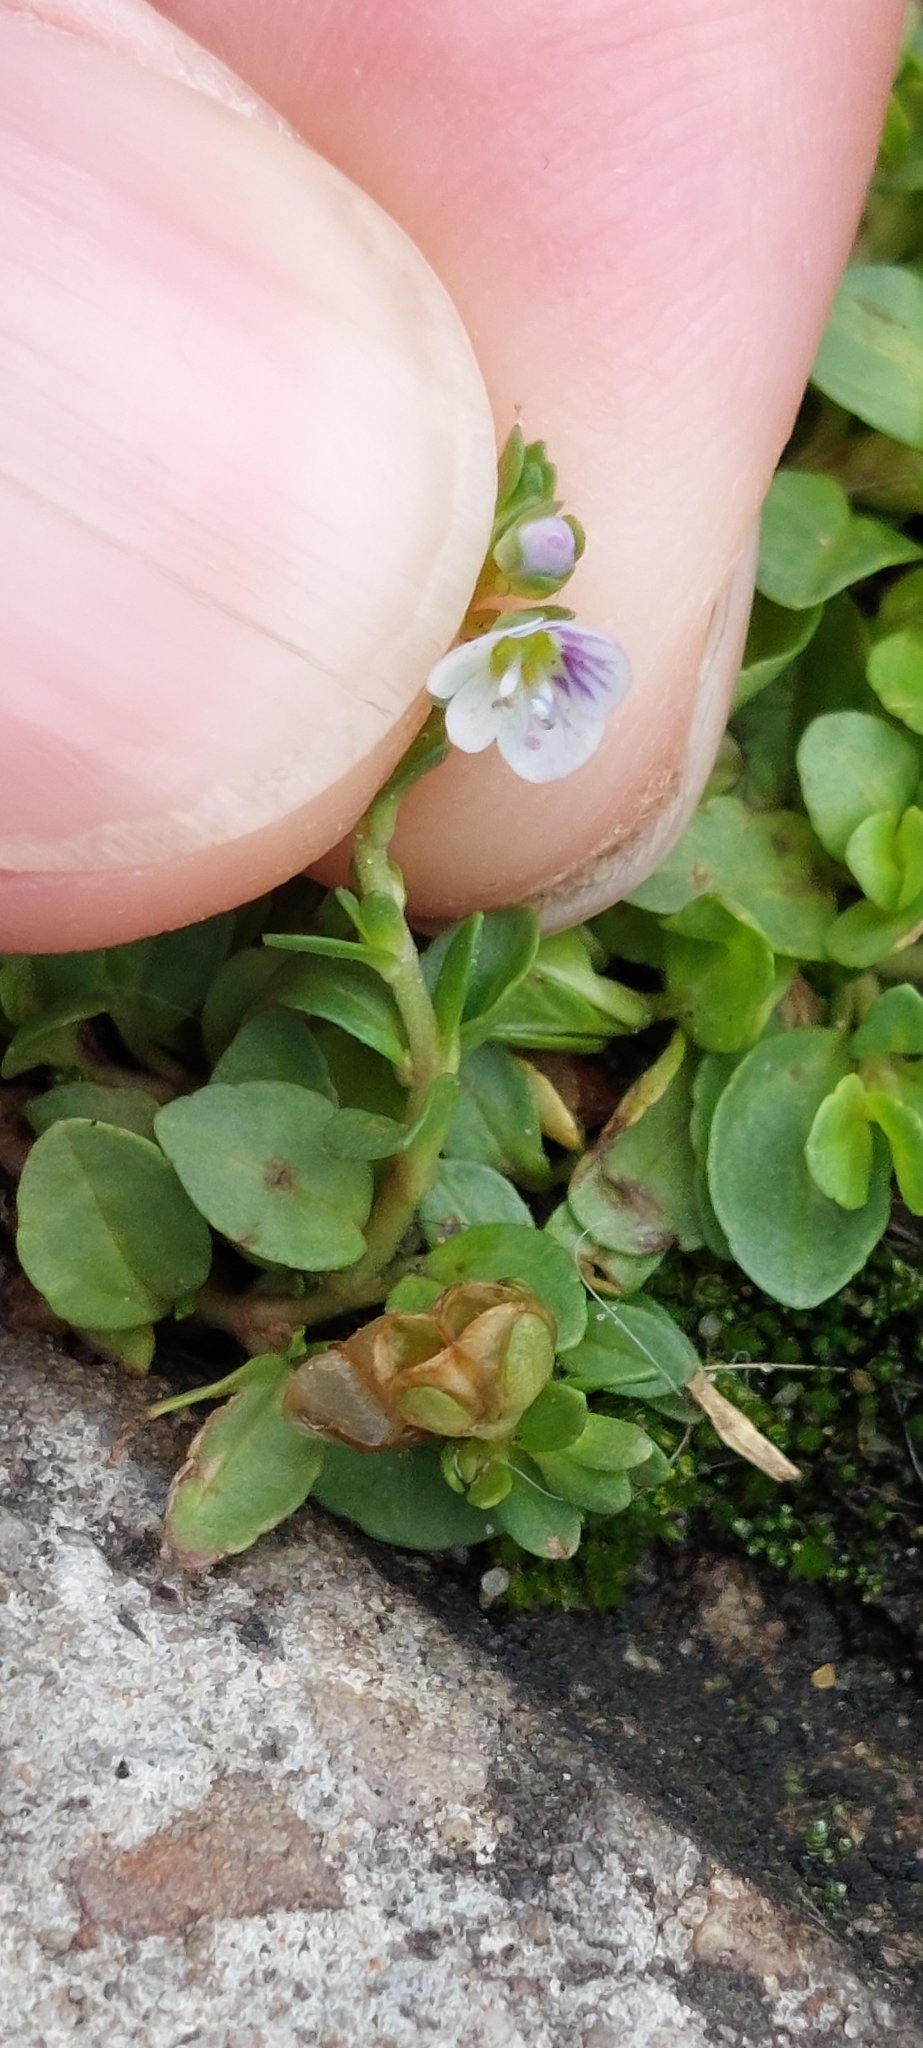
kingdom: Plantae
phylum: Tracheophyta
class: Magnoliopsida
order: Lamiales
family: Plantaginaceae
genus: Veronica
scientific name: Veronica serpyllifolia
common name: Thyme-leaved speedwell
